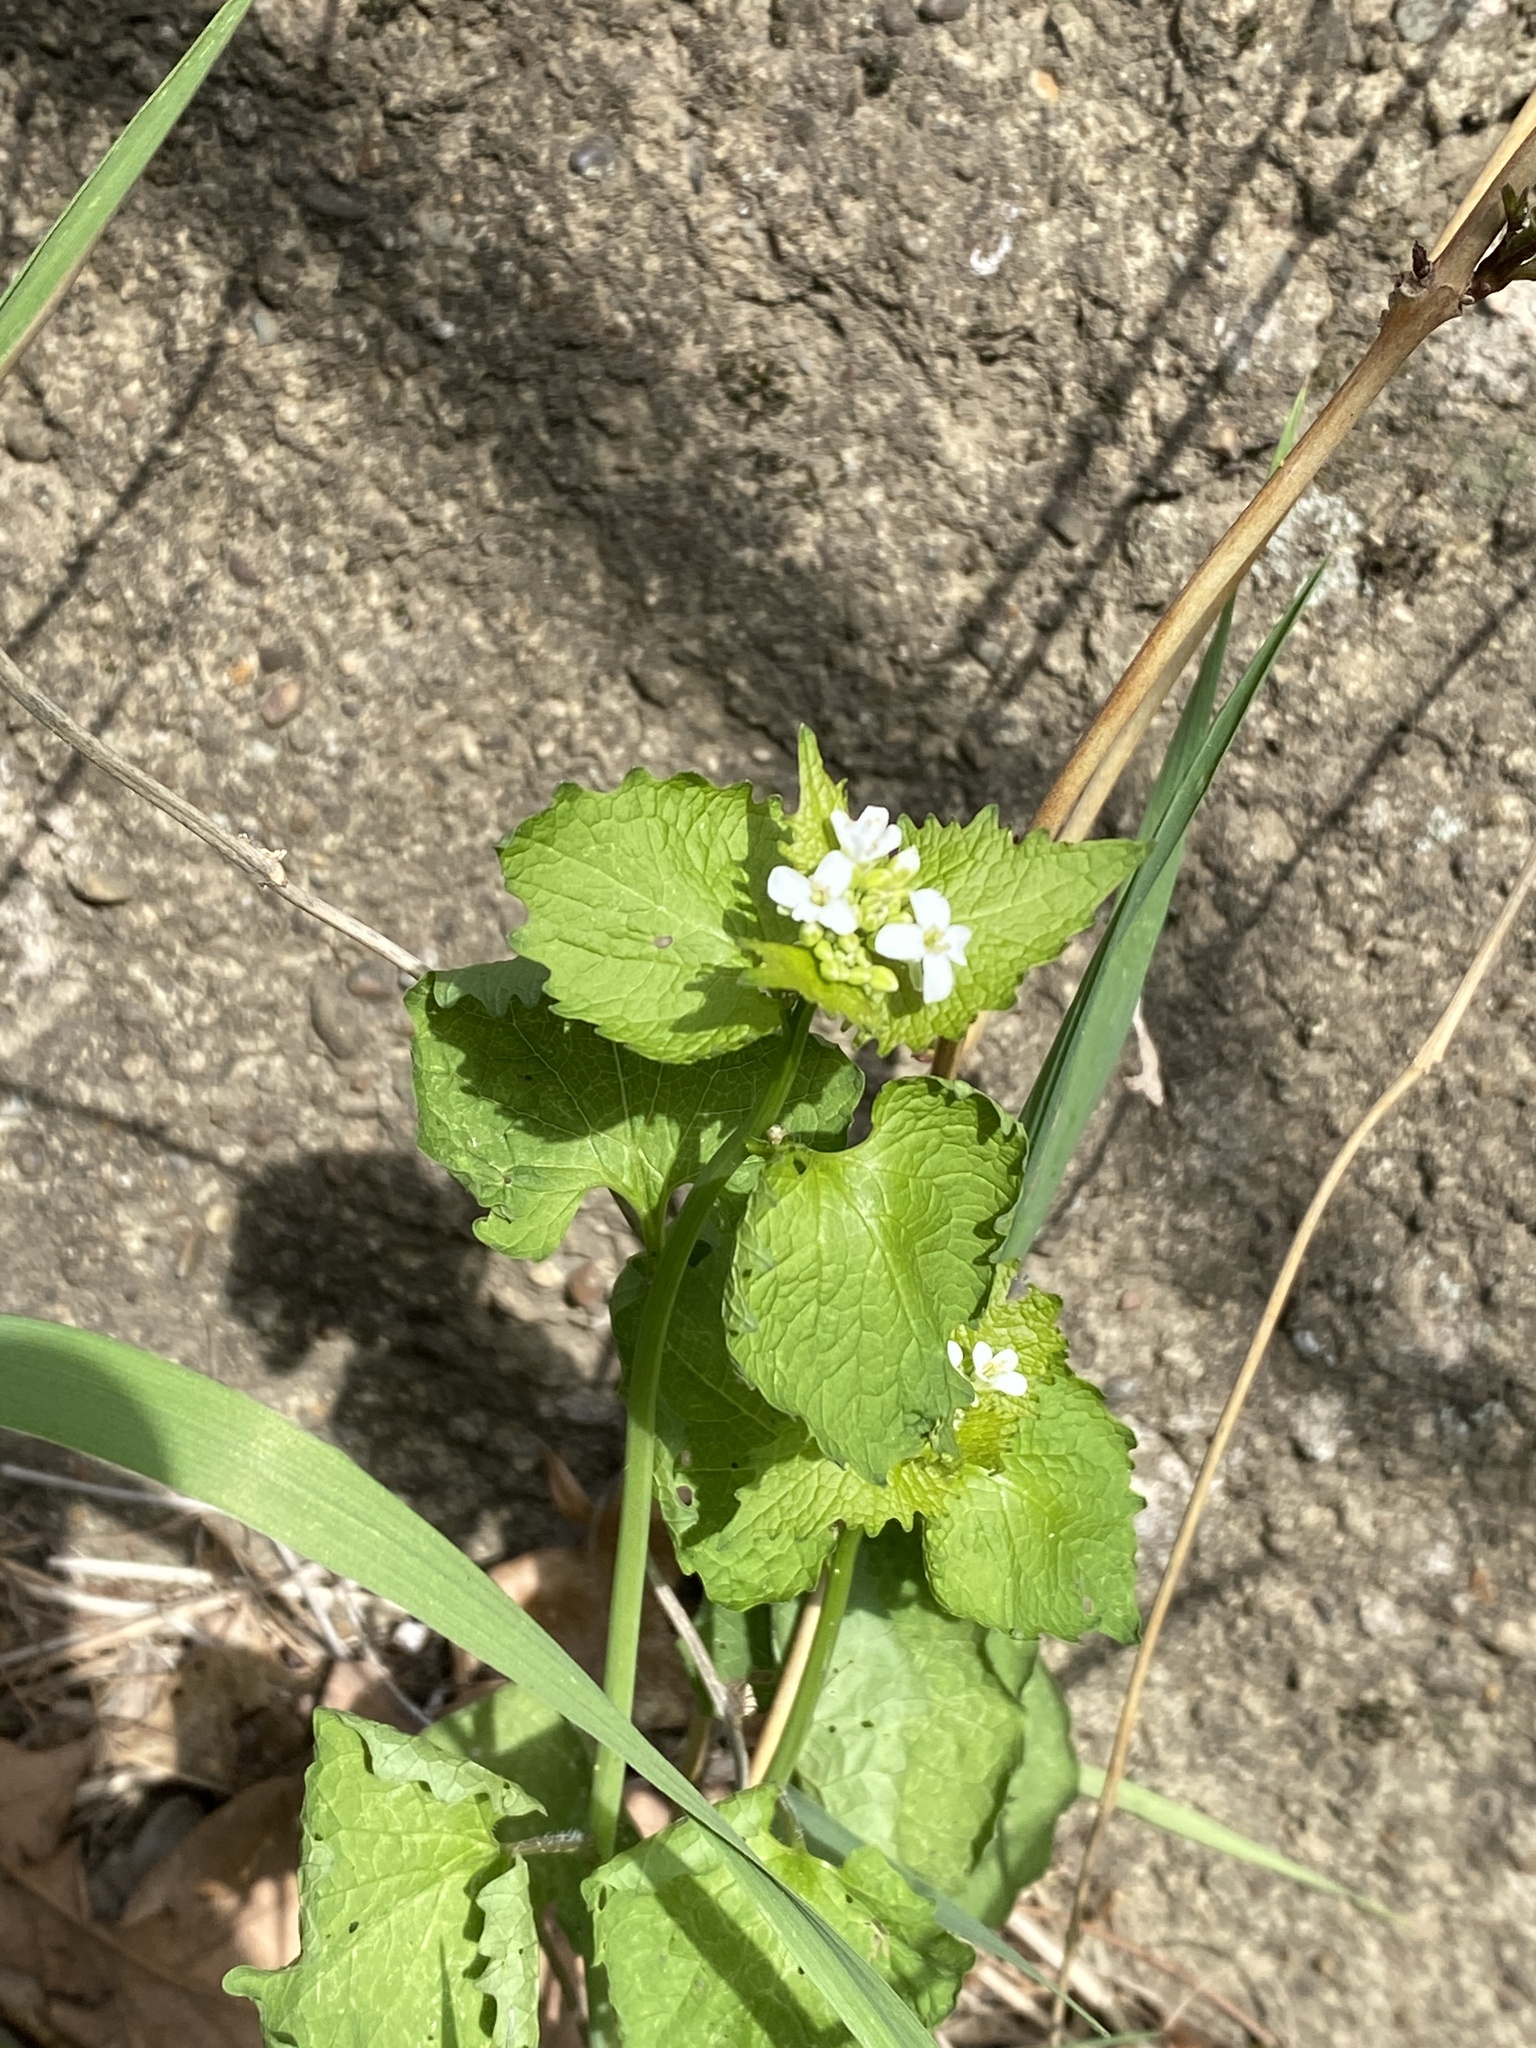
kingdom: Plantae
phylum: Tracheophyta
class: Magnoliopsida
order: Brassicales
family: Brassicaceae
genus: Alliaria
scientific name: Alliaria petiolata
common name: Garlic mustard
